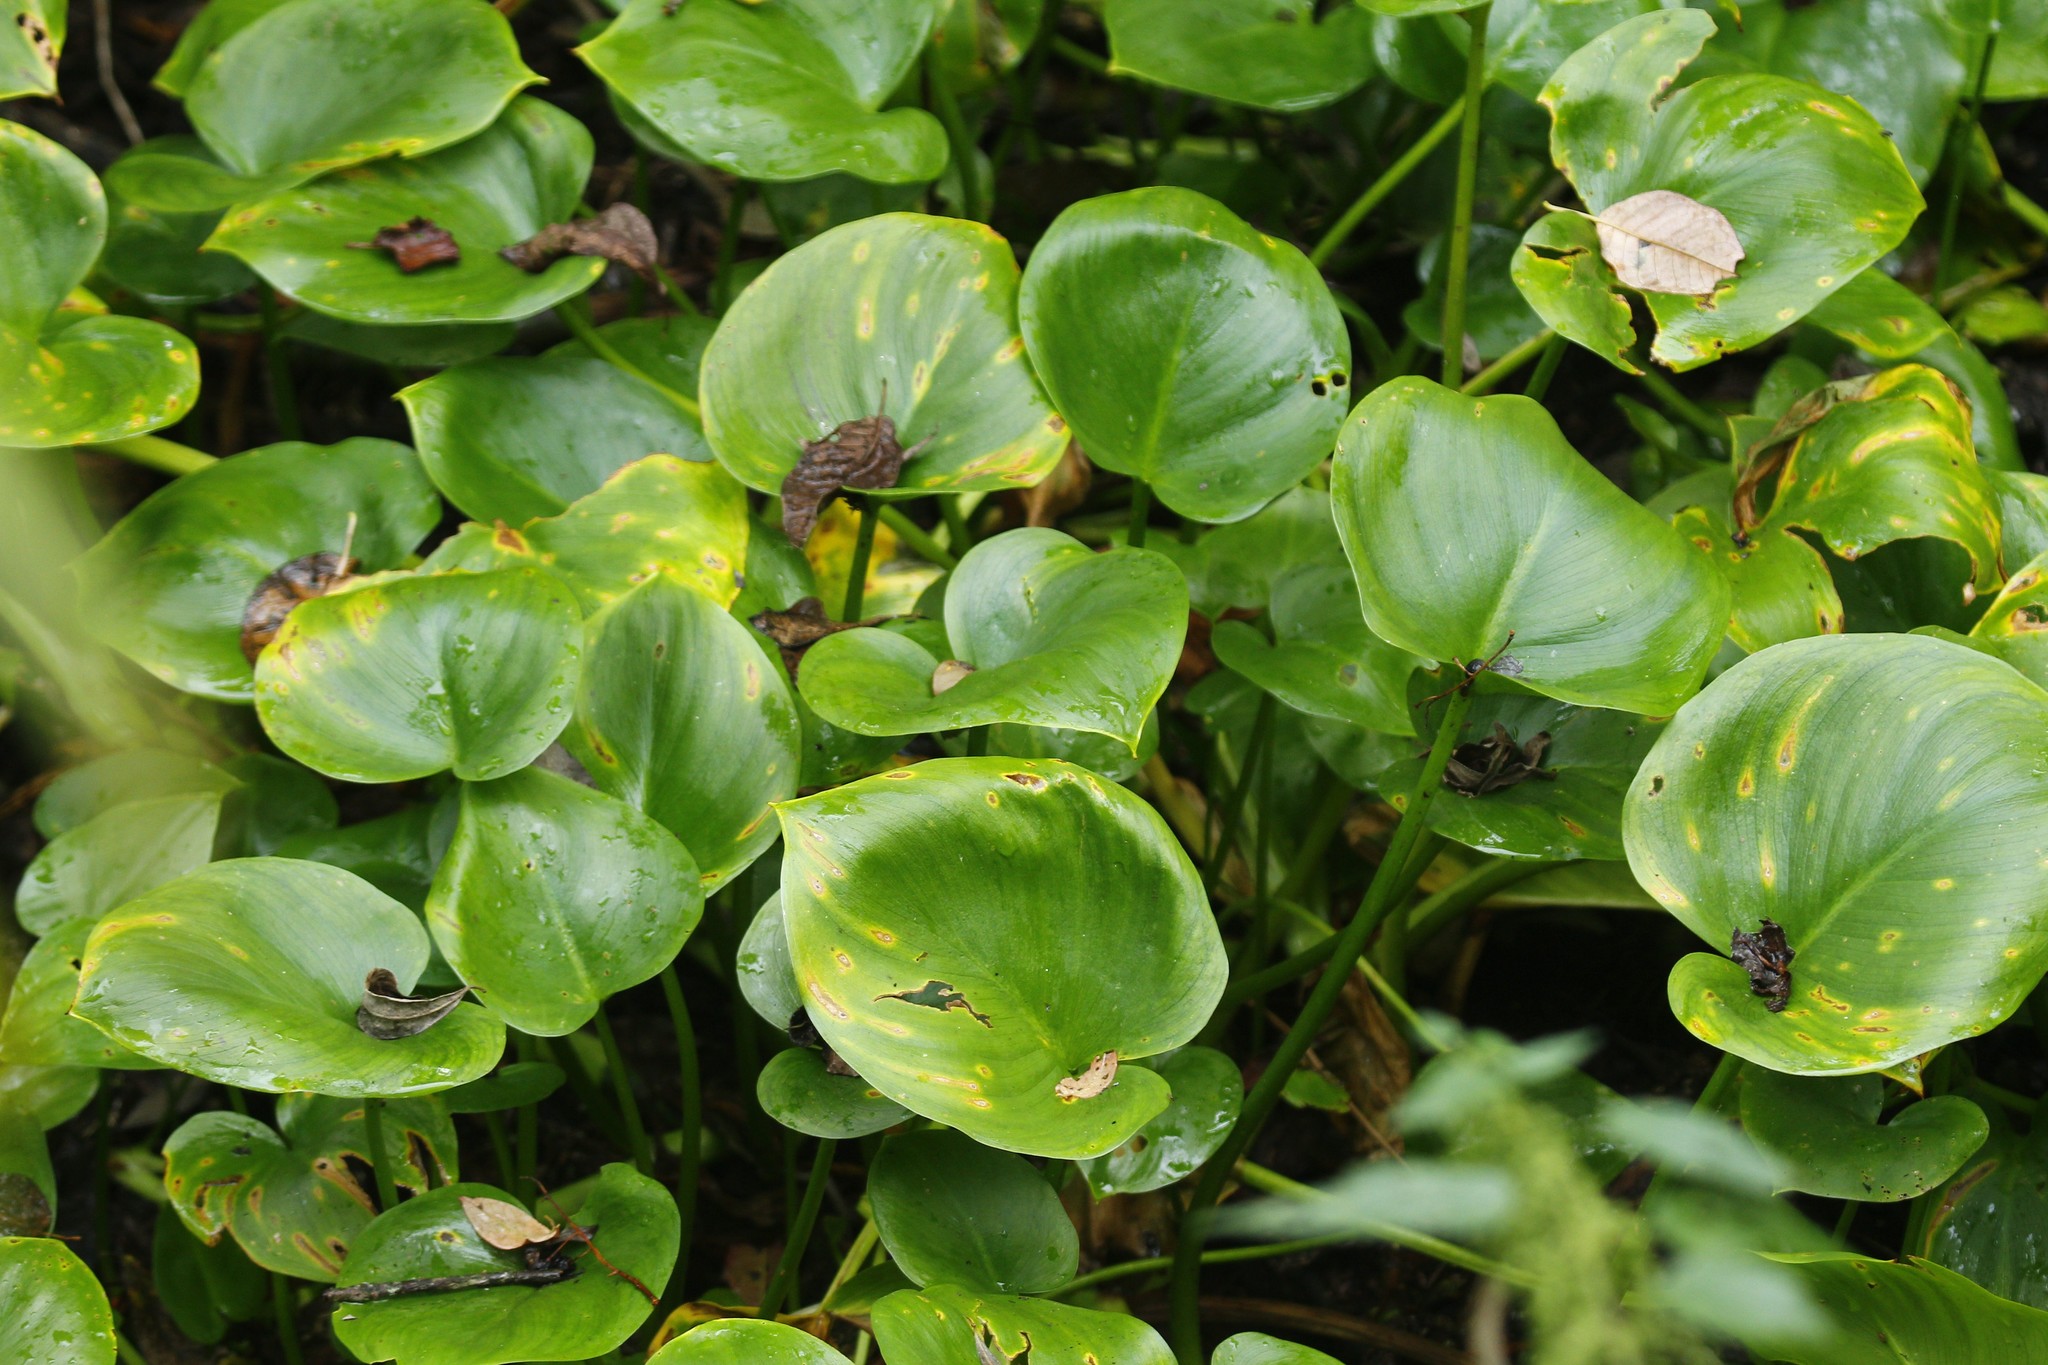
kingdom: Plantae
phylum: Tracheophyta
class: Liliopsida
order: Alismatales
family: Araceae
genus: Calla
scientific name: Calla palustris
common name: Bog arum
